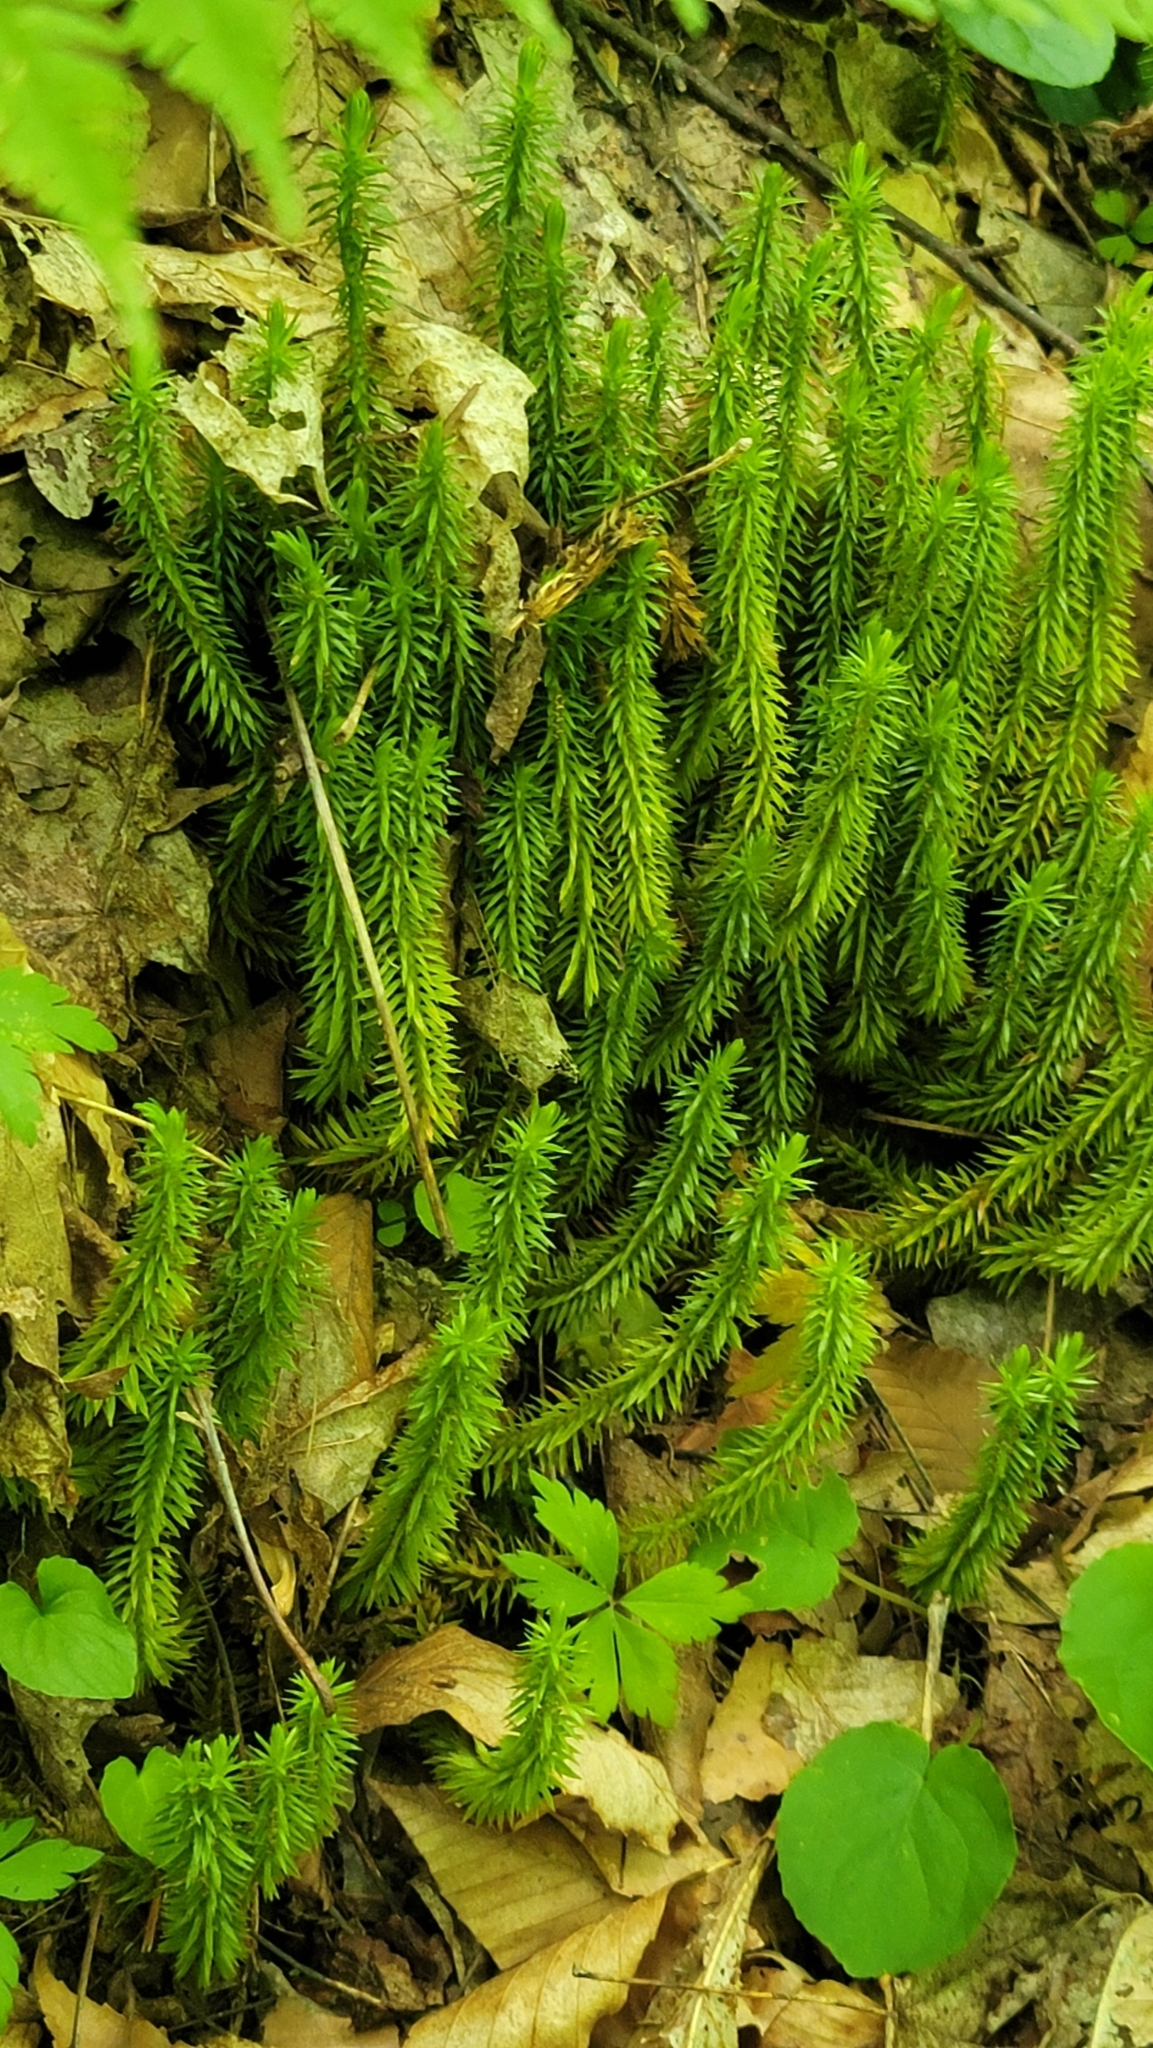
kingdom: Plantae
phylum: Tracheophyta
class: Lycopodiopsida
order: Lycopodiales
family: Lycopodiaceae
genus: Huperzia
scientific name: Huperzia lucidula
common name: Shining clubmoss
